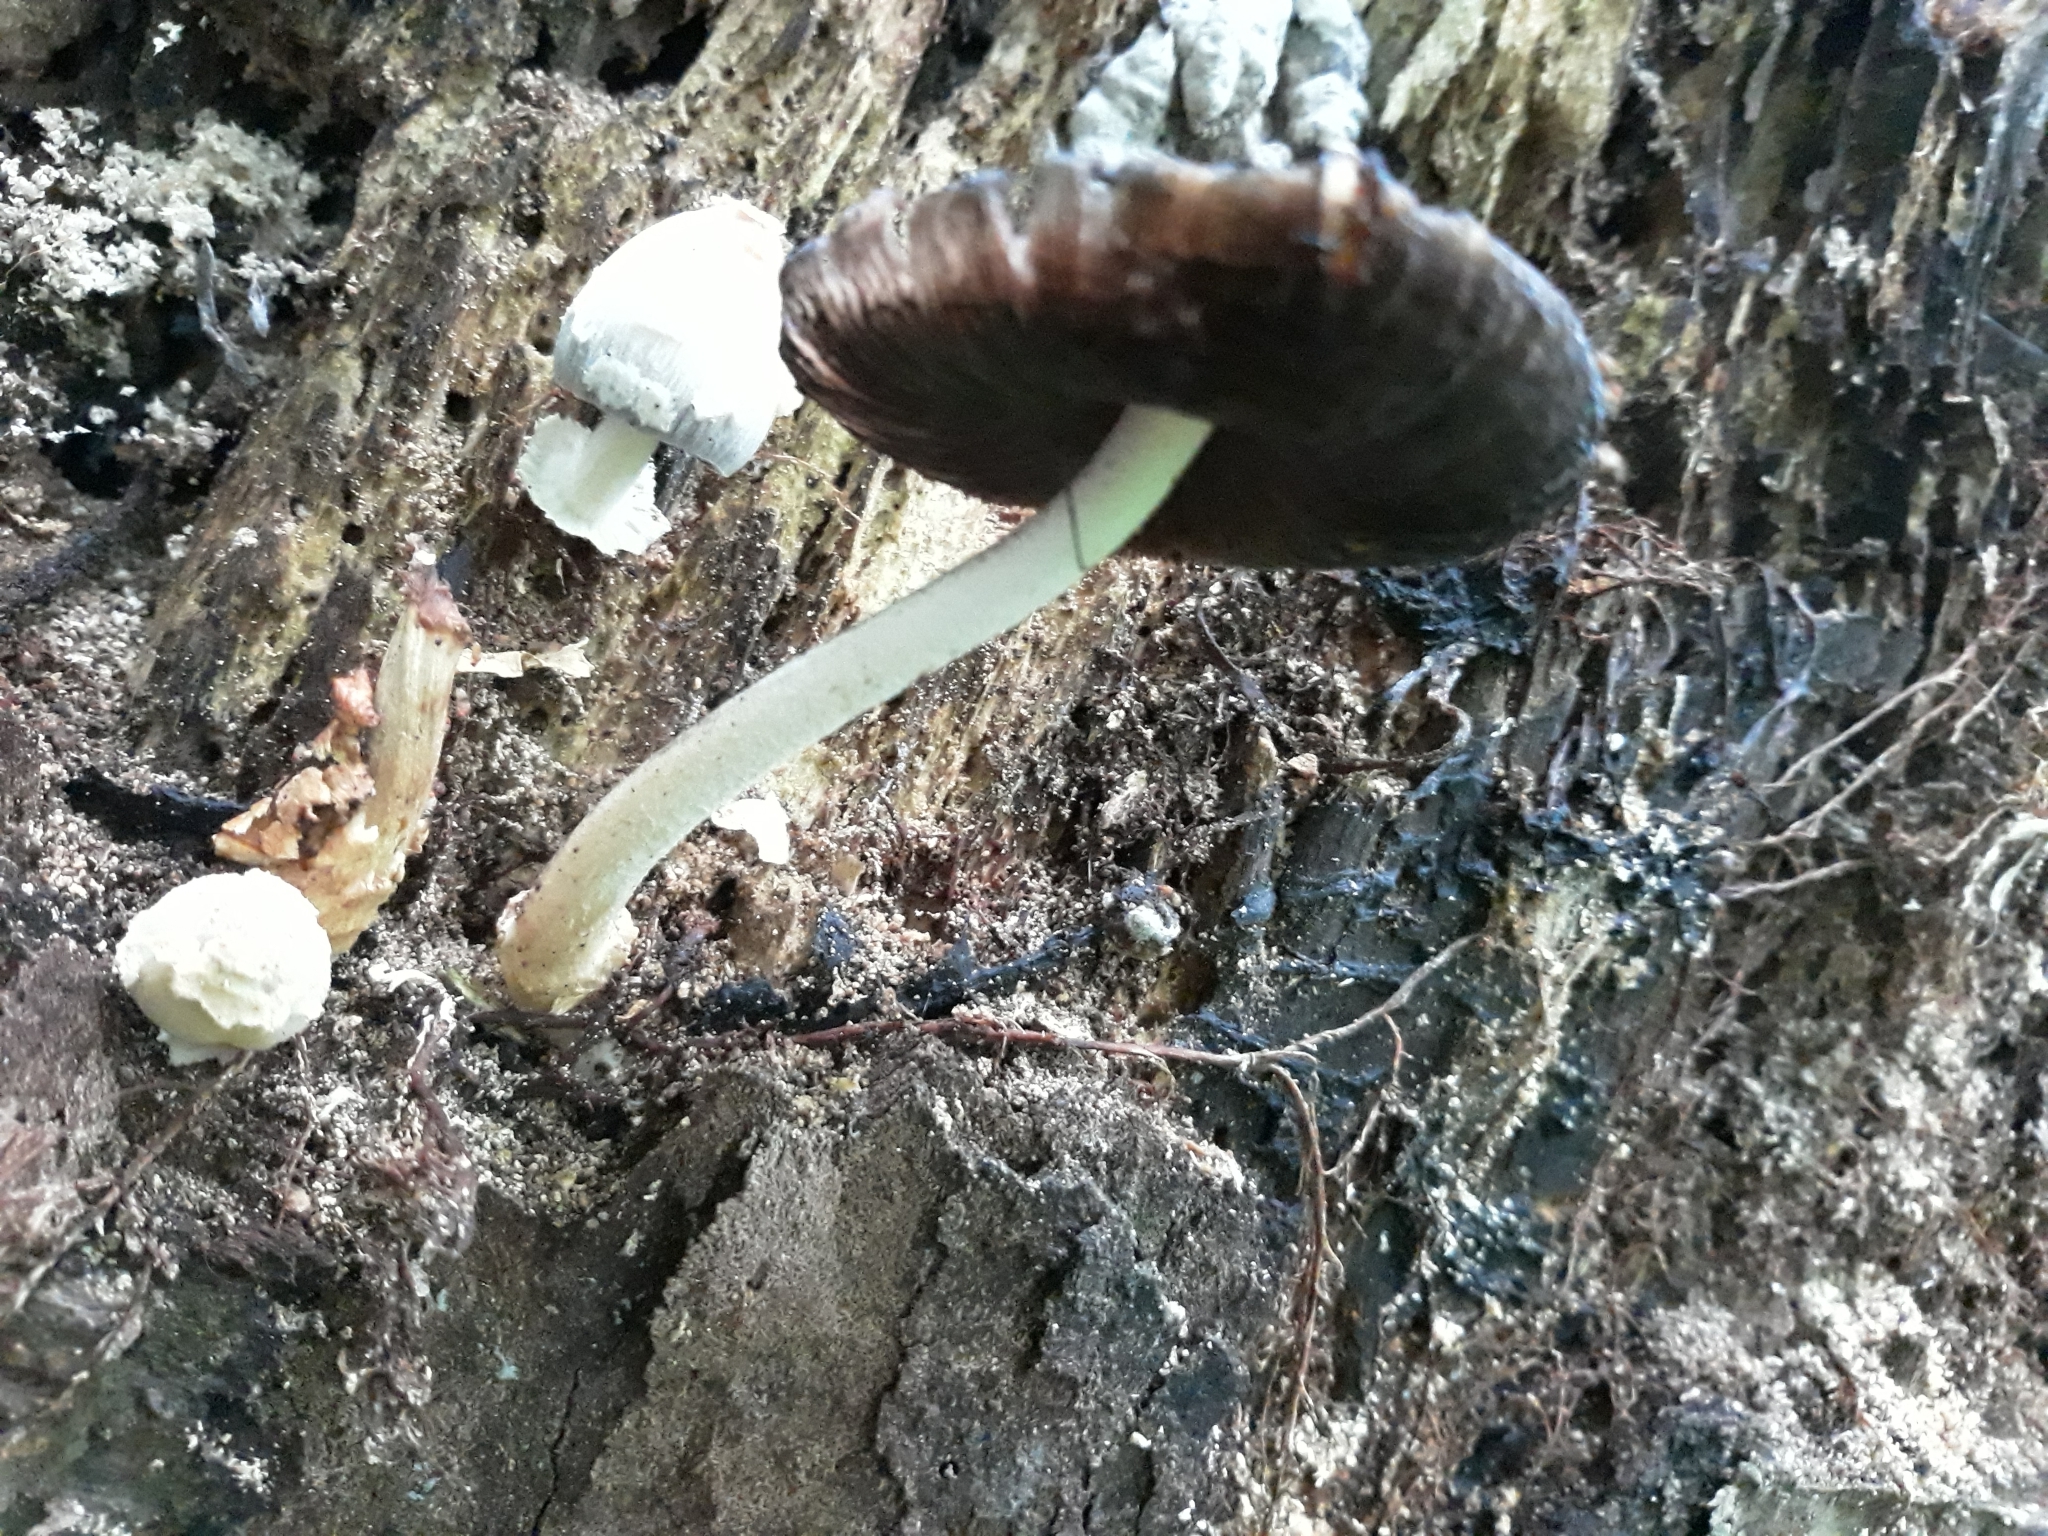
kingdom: Fungi
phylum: Basidiomycota
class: Agaricomycetes
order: Agaricales
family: Psathyrellaceae
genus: Coprinopsis
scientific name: Coprinopsis variegata
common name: Scaly ink cap
